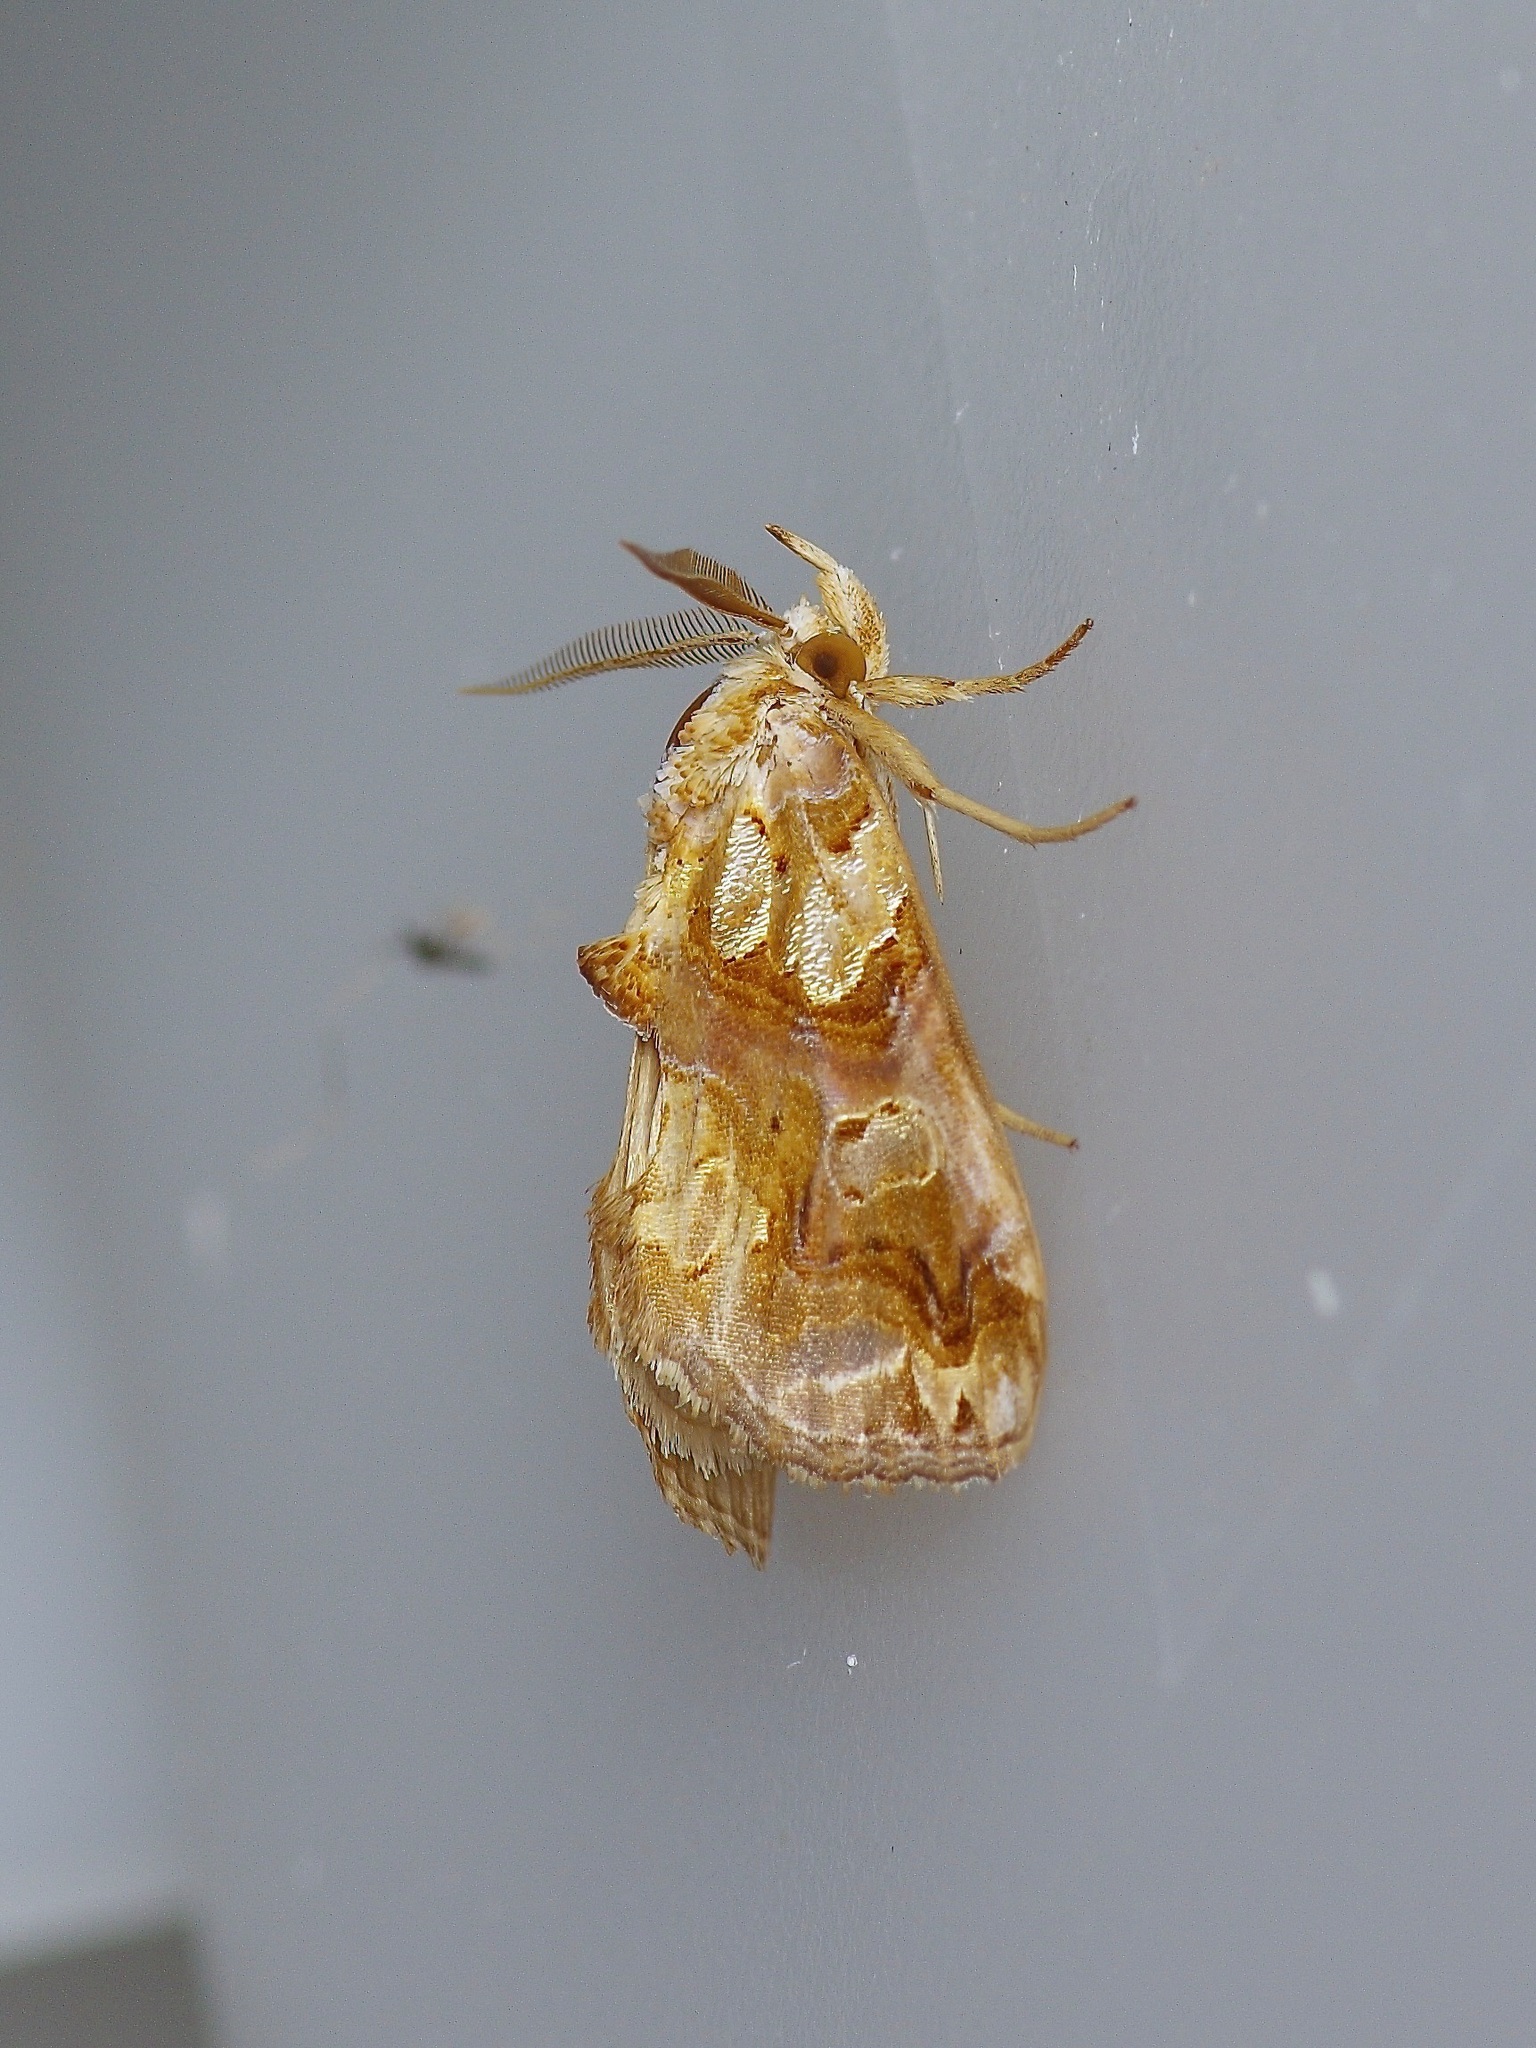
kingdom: Animalia
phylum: Arthropoda
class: Insecta
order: Lepidoptera
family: Erebidae
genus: Plusiodonta
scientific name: Plusiodonta compressipalpis
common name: Moonseed moth
